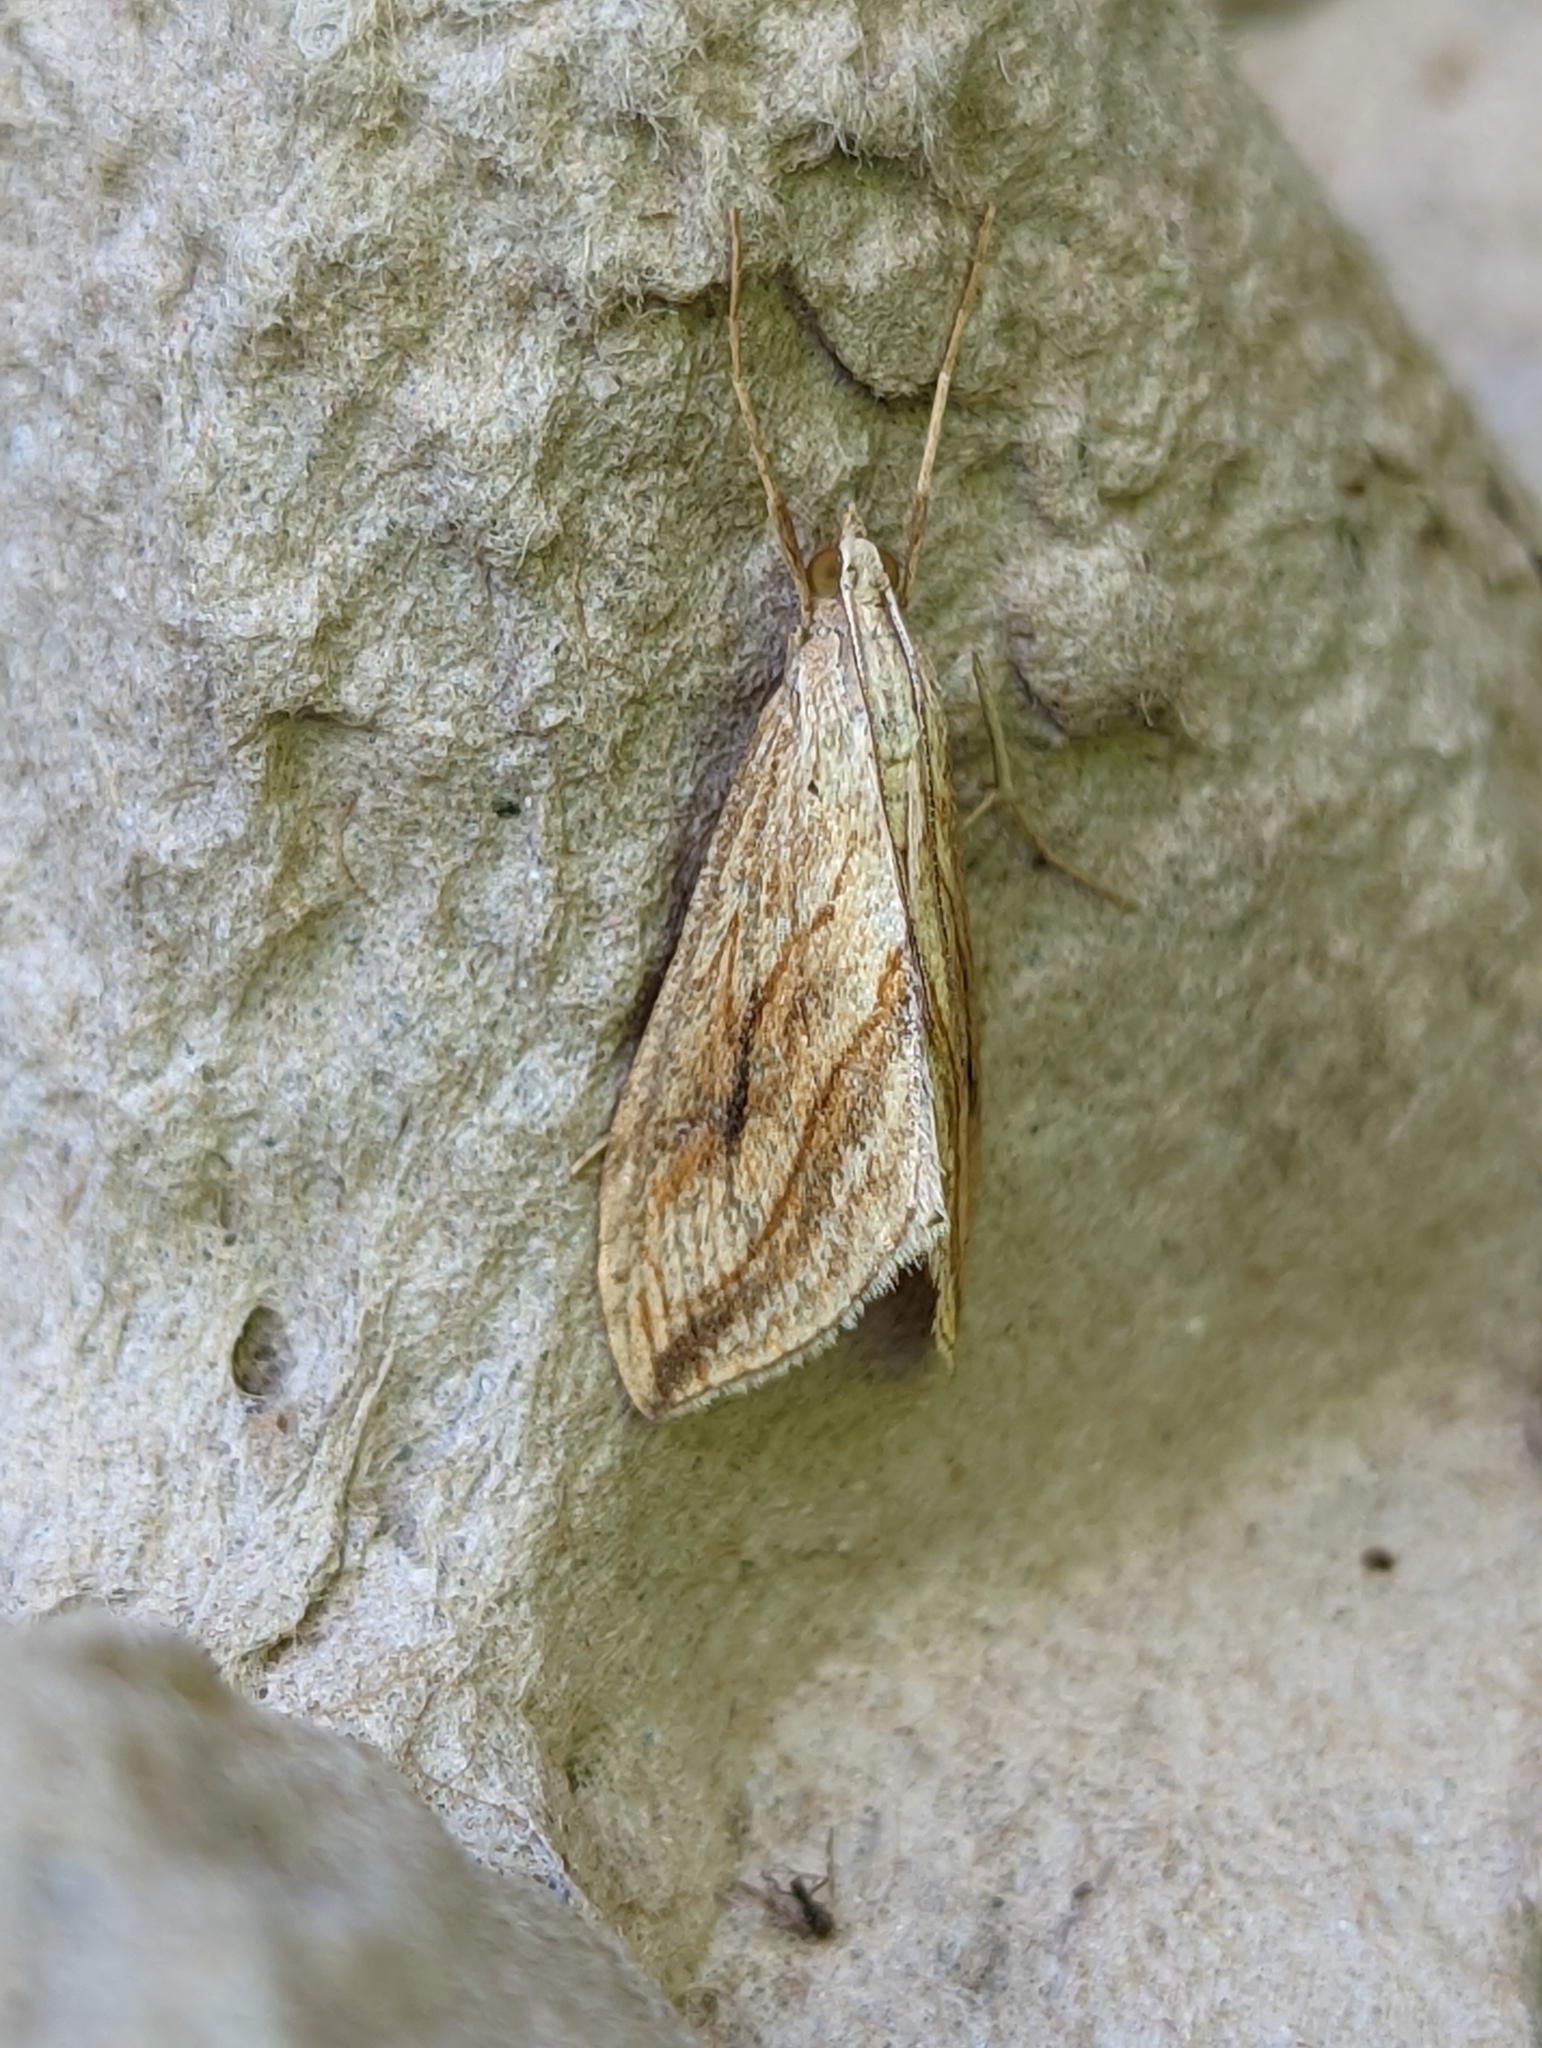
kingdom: Animalia
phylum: Arthropoda
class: Insecta
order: Lepidoptera
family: Crambidae
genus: Evergestis
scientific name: Evergestis forficalis
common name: Garden pebble
